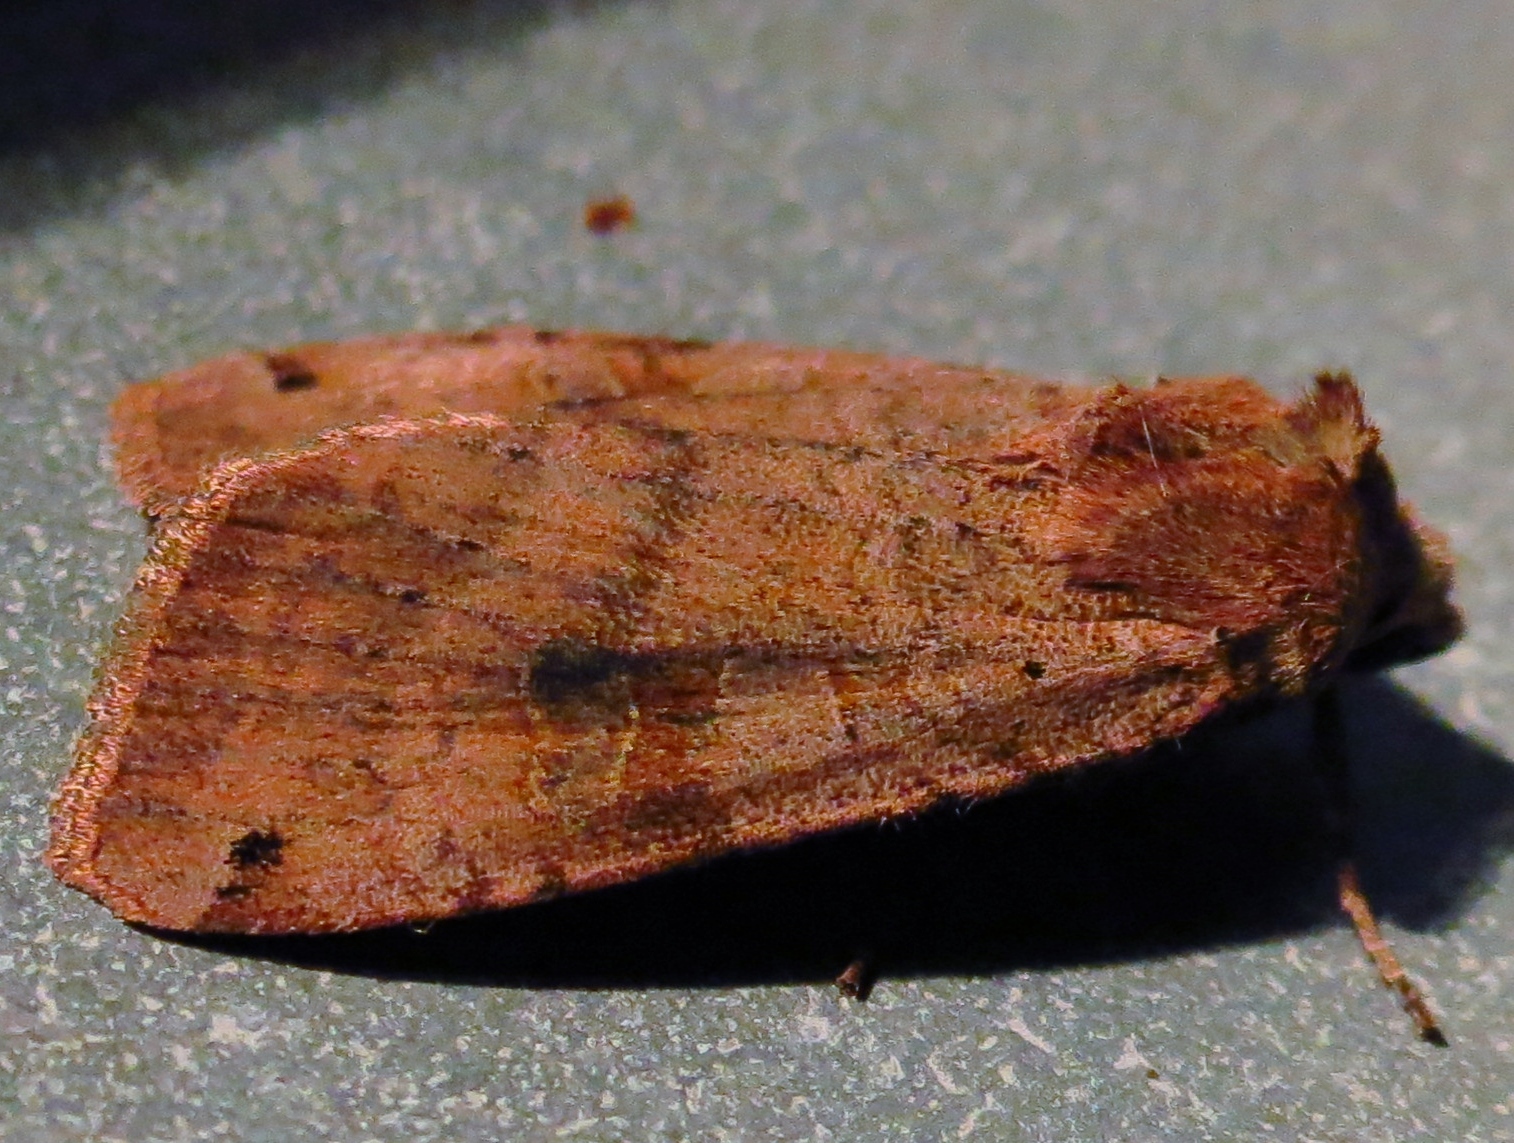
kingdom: Animalia
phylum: Arthropoda
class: Insecta
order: Lepidoptera
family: Noctuidae
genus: Xestia
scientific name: Xestia baja
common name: Dotted clay
